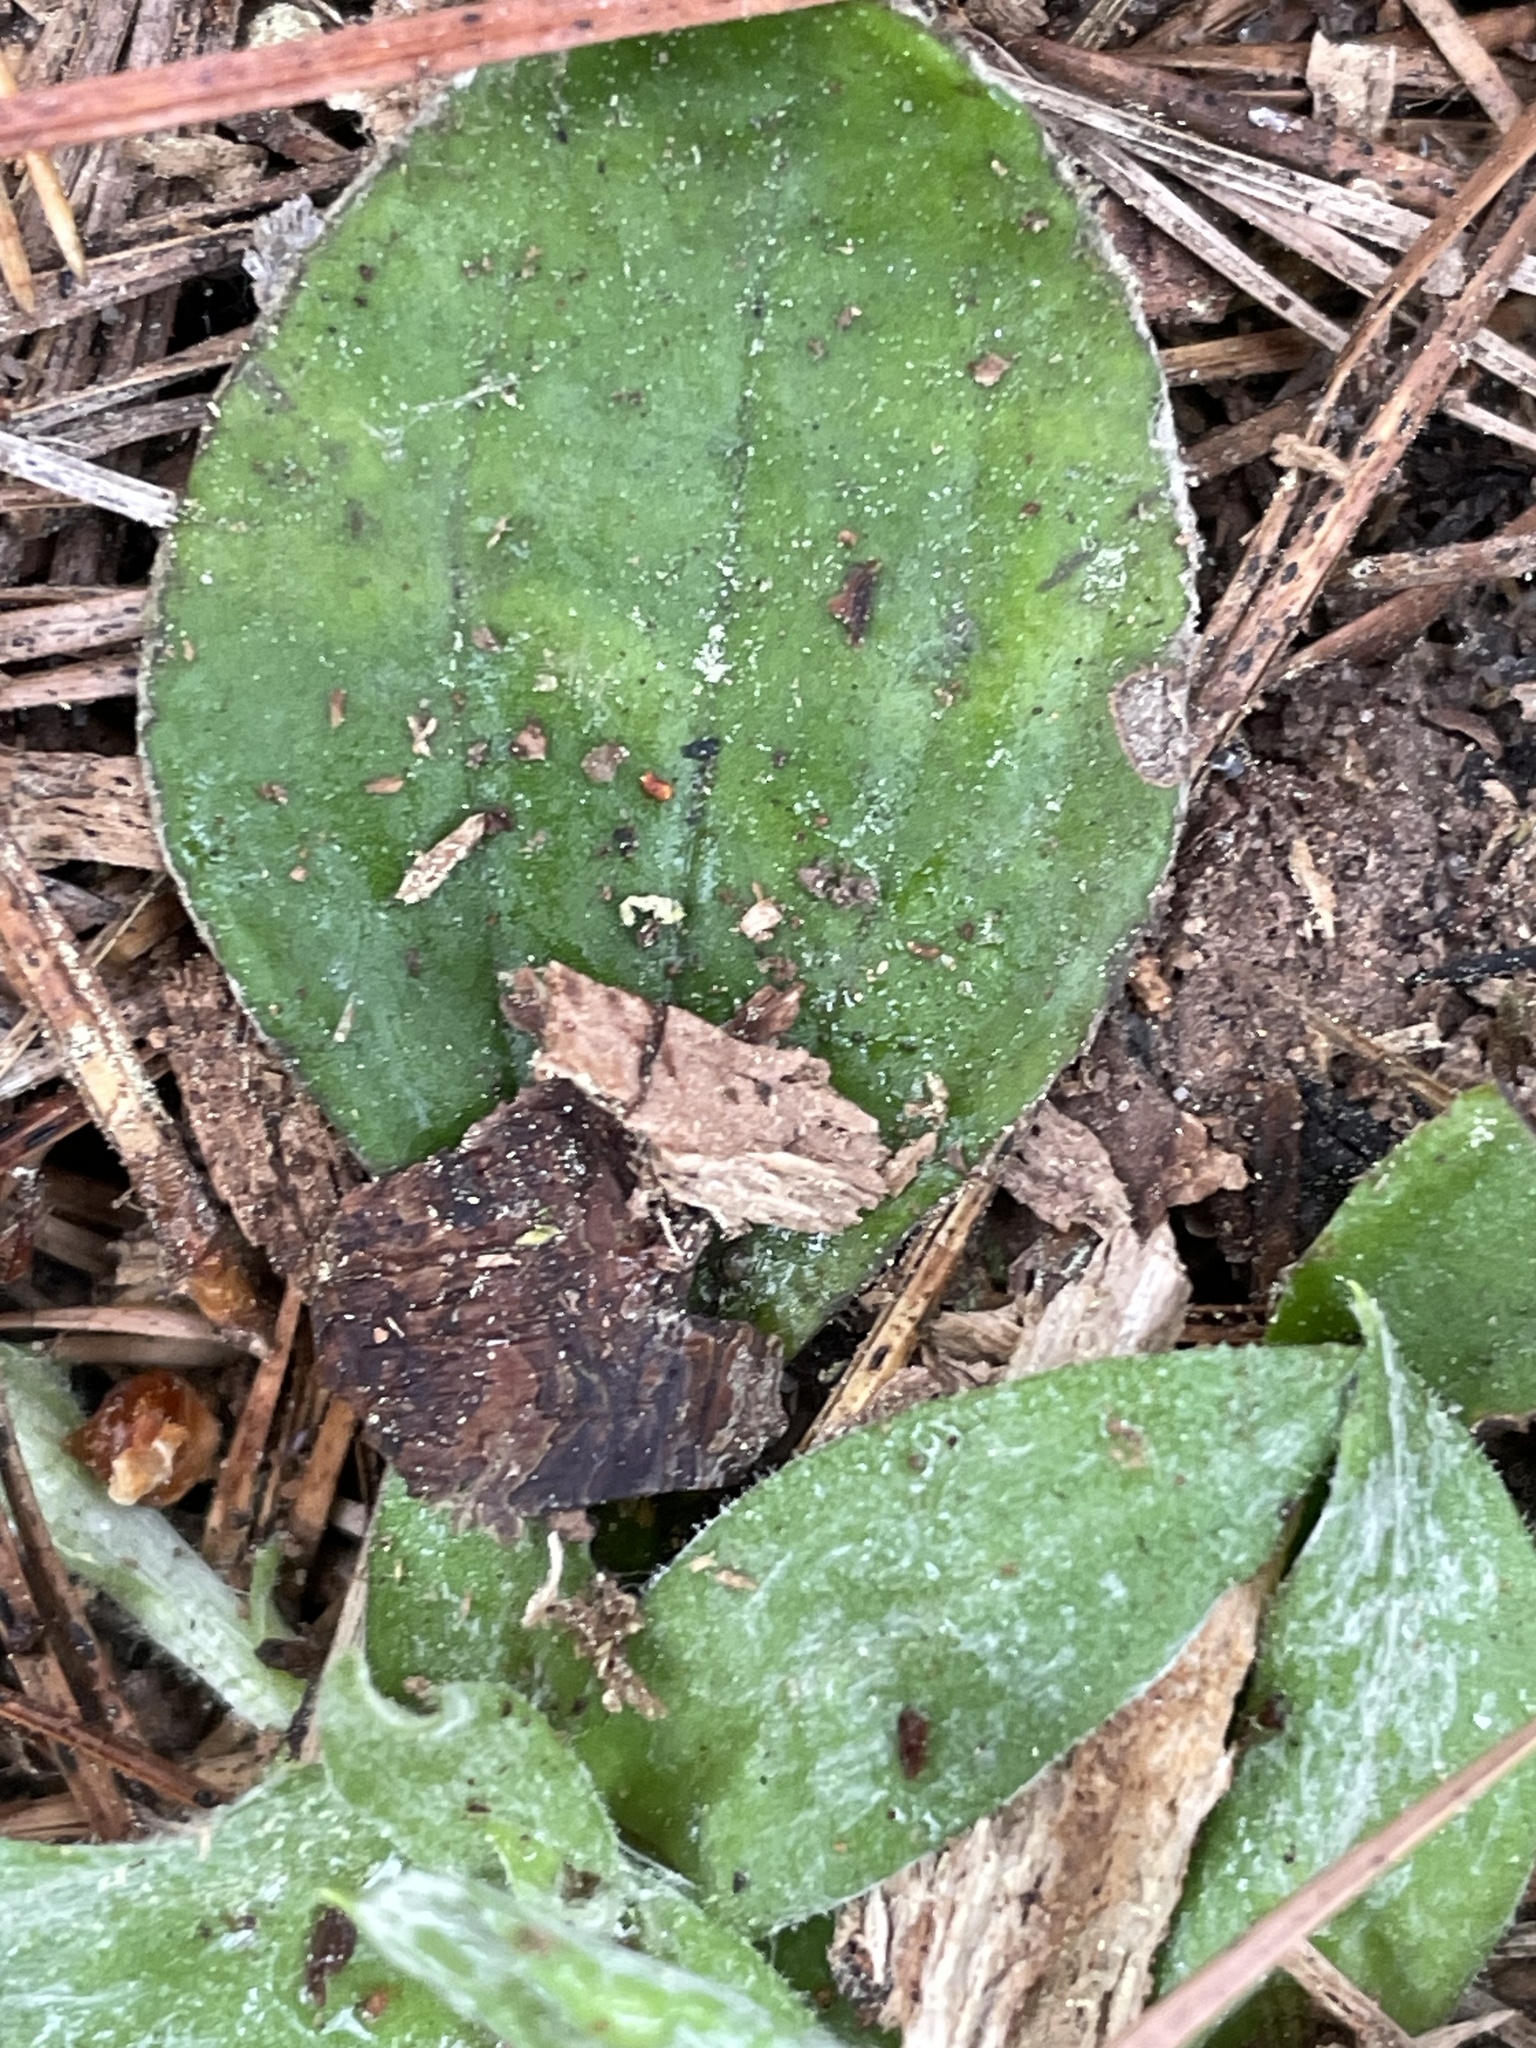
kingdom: Plantae
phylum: Tracheophyta
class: Magnoliopsida
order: Asterales
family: Asteraceae
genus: Antennaria
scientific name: Antennaria parlinii
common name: Parlin's pussytoes
